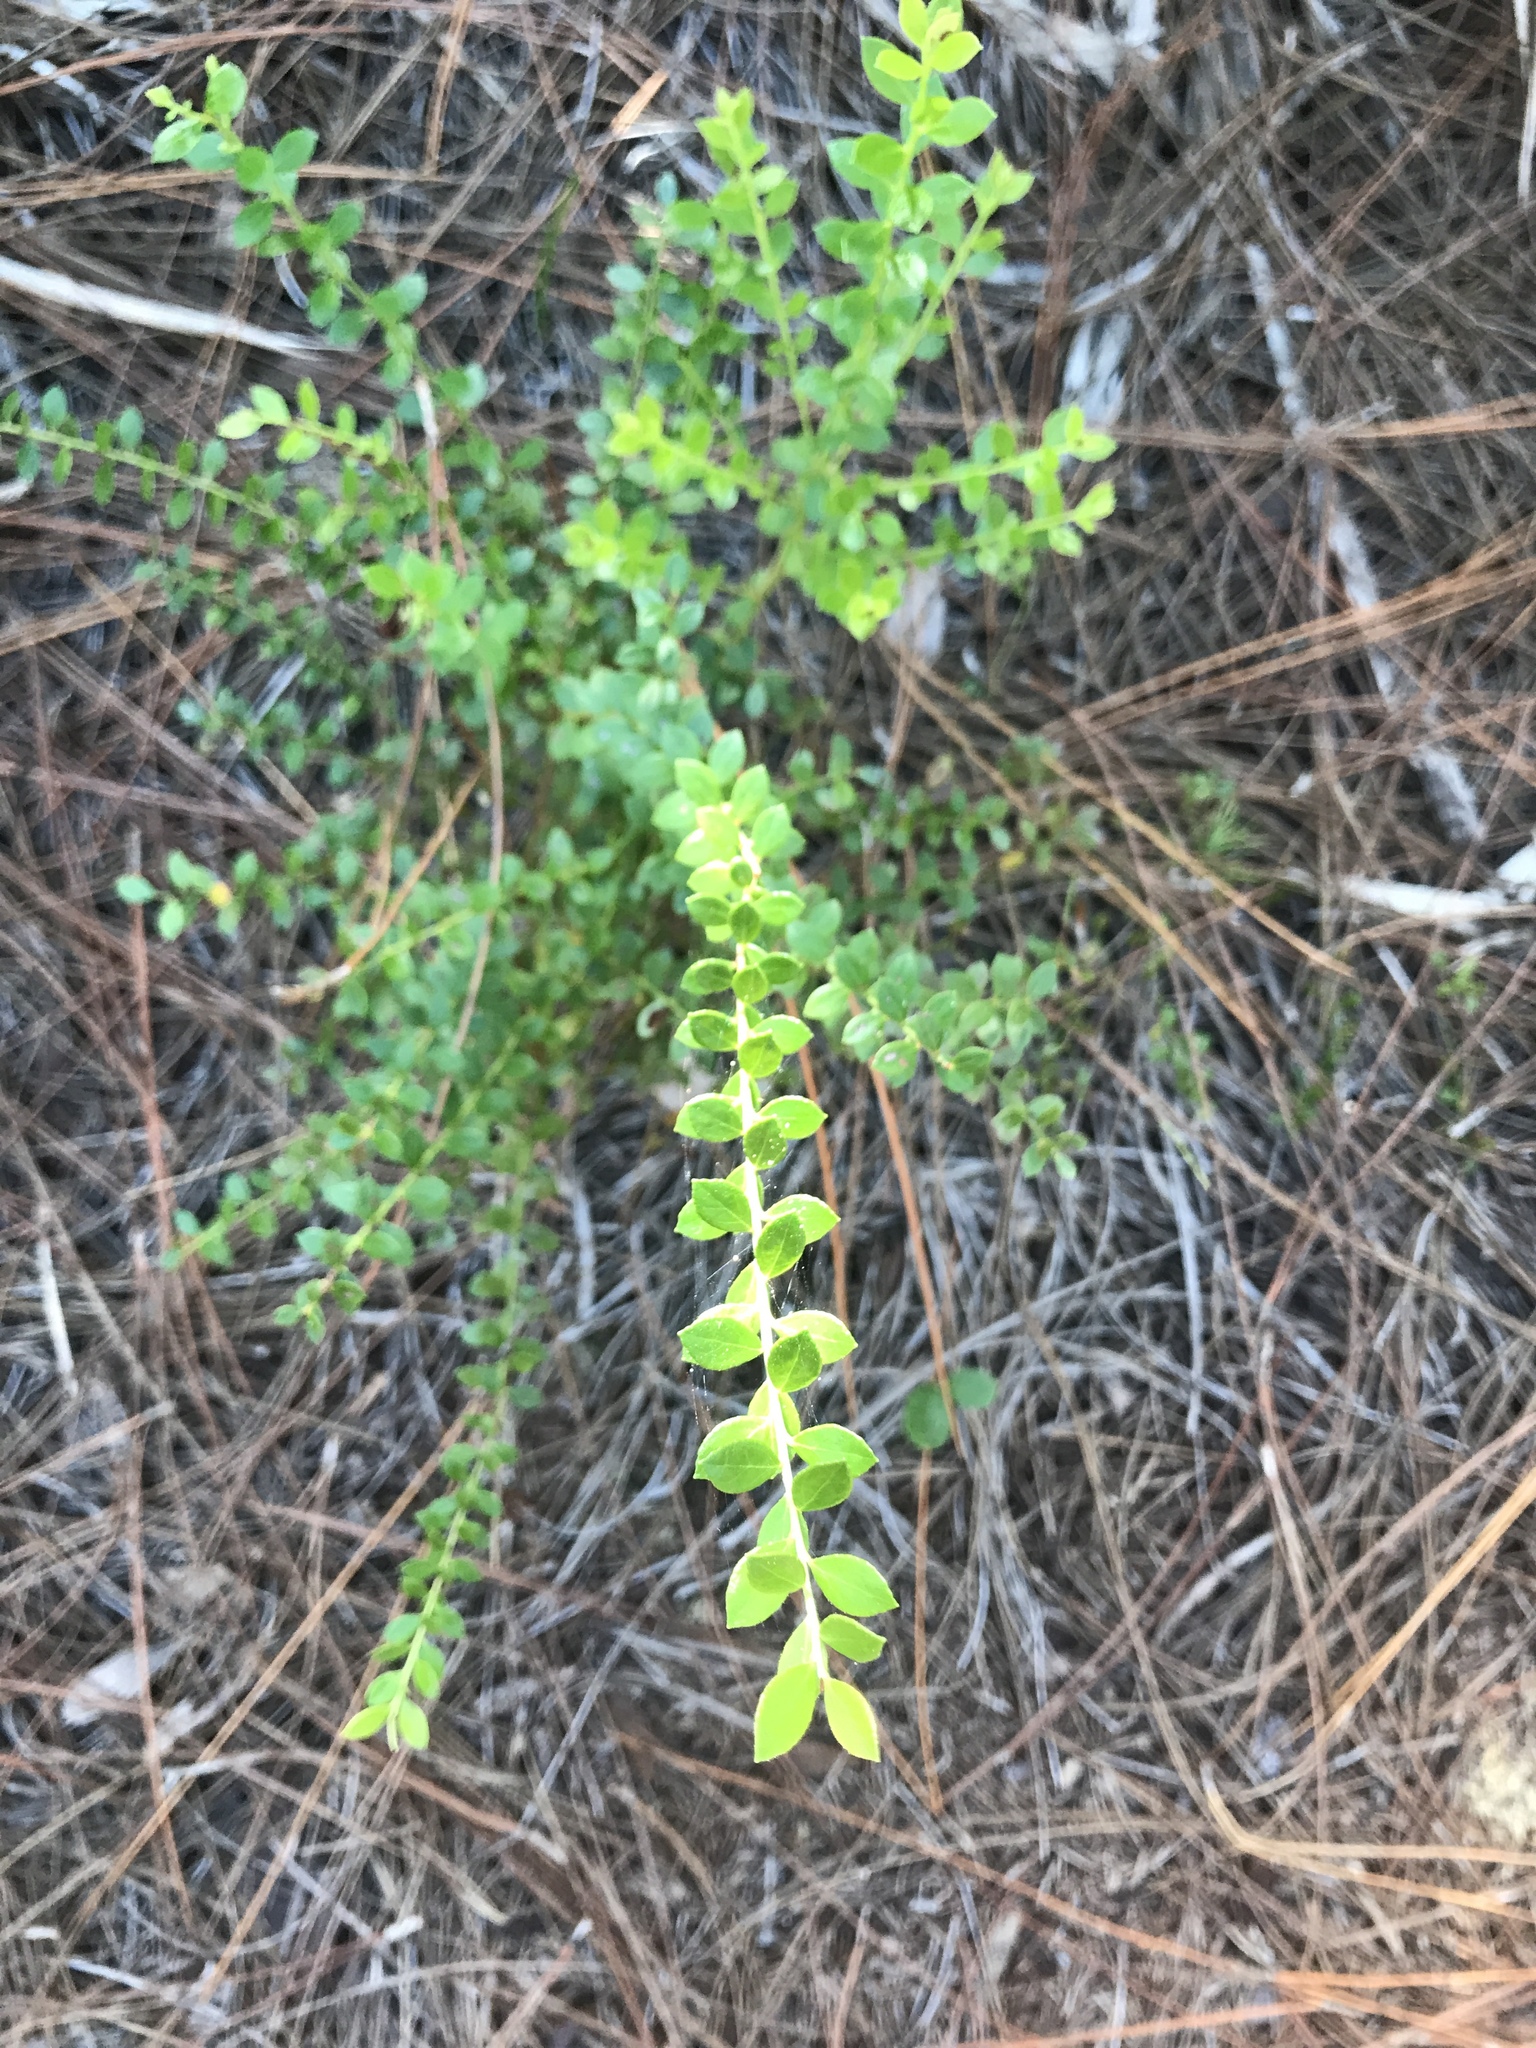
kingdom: Plantae
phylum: Tracheophyta
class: Magnoliopsida
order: Ericales
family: Ericaceae
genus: Vaccinium
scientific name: Vaccinium myrsinites
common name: Evergreen blueberry
